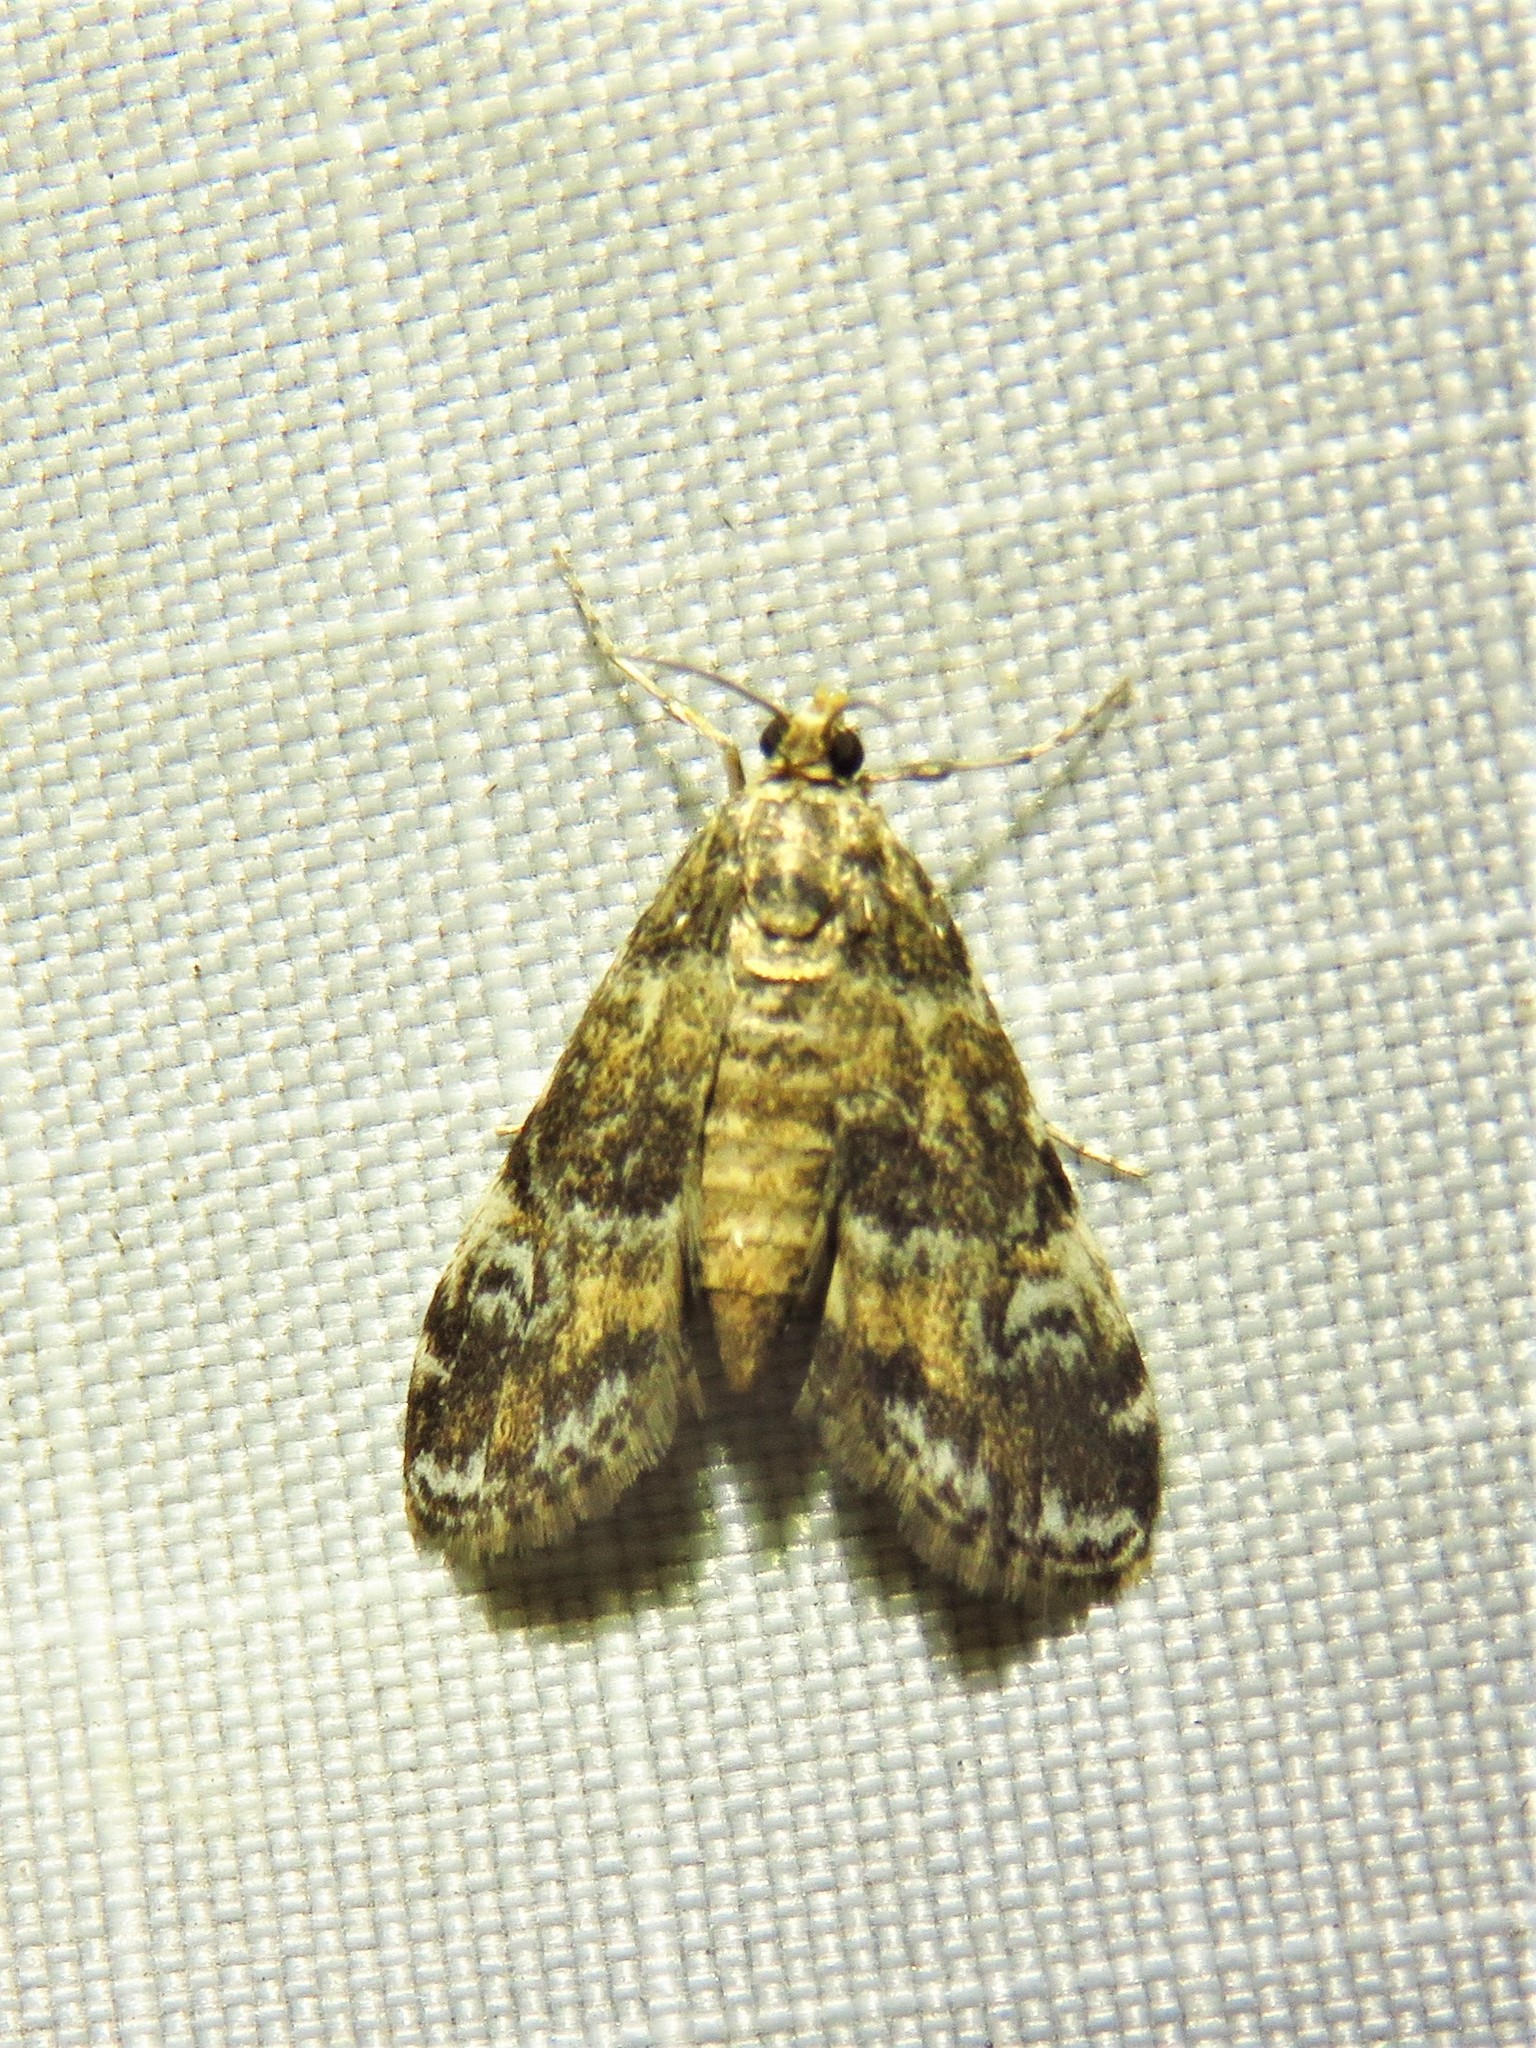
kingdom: Animalia
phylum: Arthropoda
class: Insecta
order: Lepidoptera
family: Crambidae
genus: Elophila
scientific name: Elophila obliteralis
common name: Waterlily leafcutter moth
